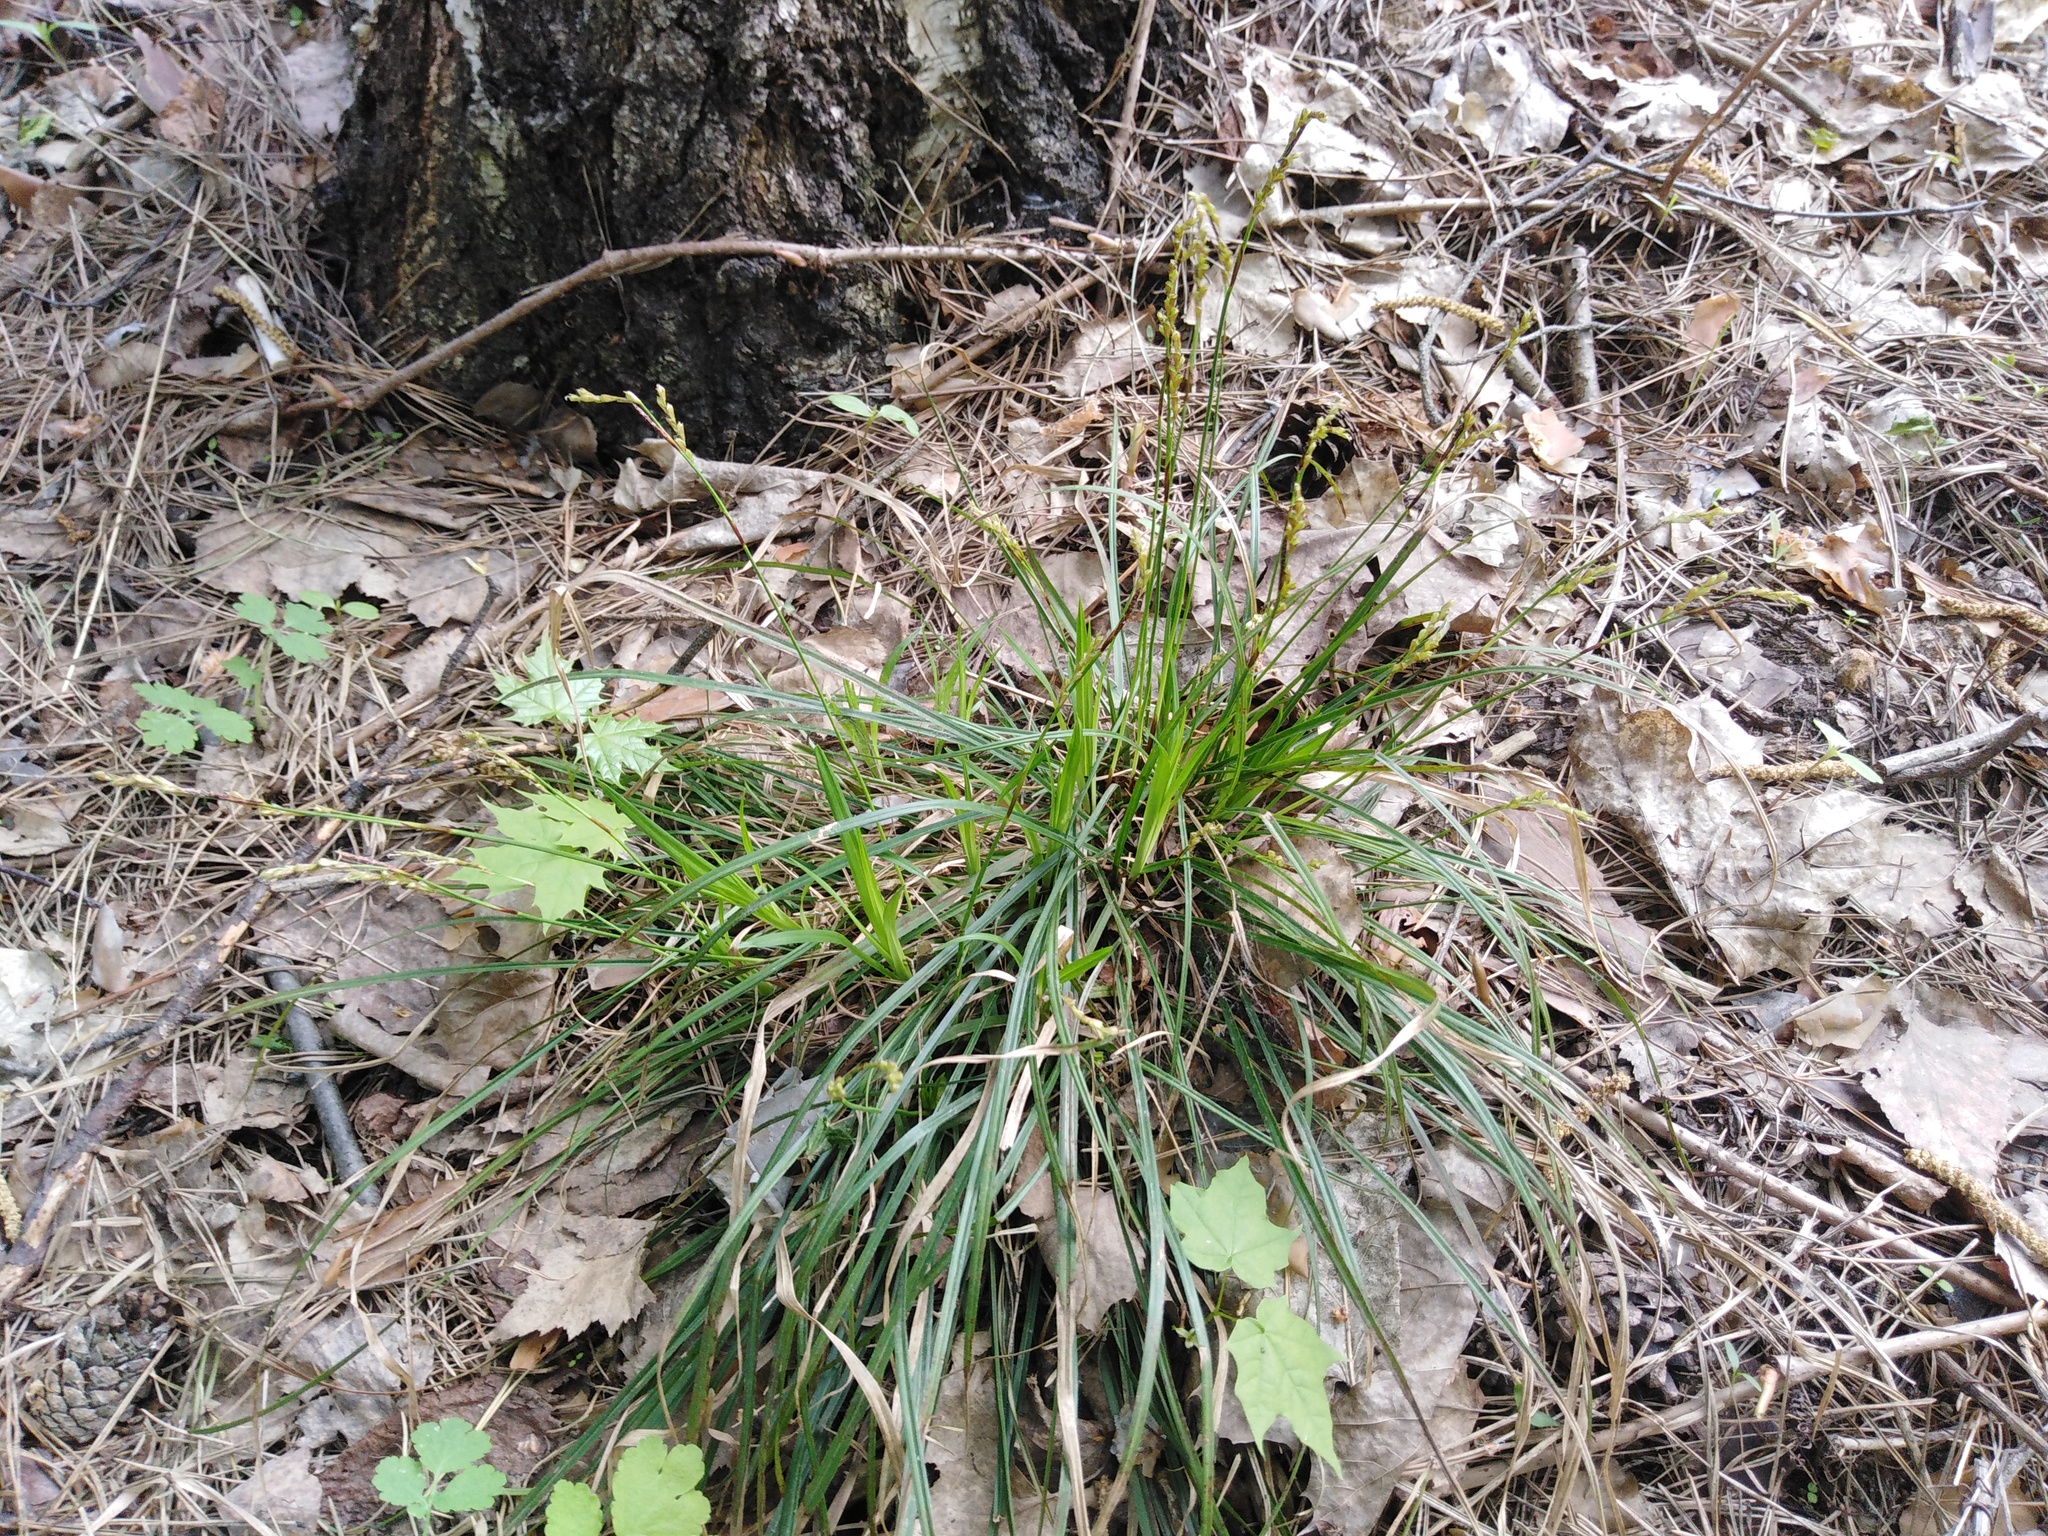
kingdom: Plantae
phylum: Tracheophyta
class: Liliopsida
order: Poales
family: Cyperaceae
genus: Carex
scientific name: Carex digitata
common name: Fingered sedge
